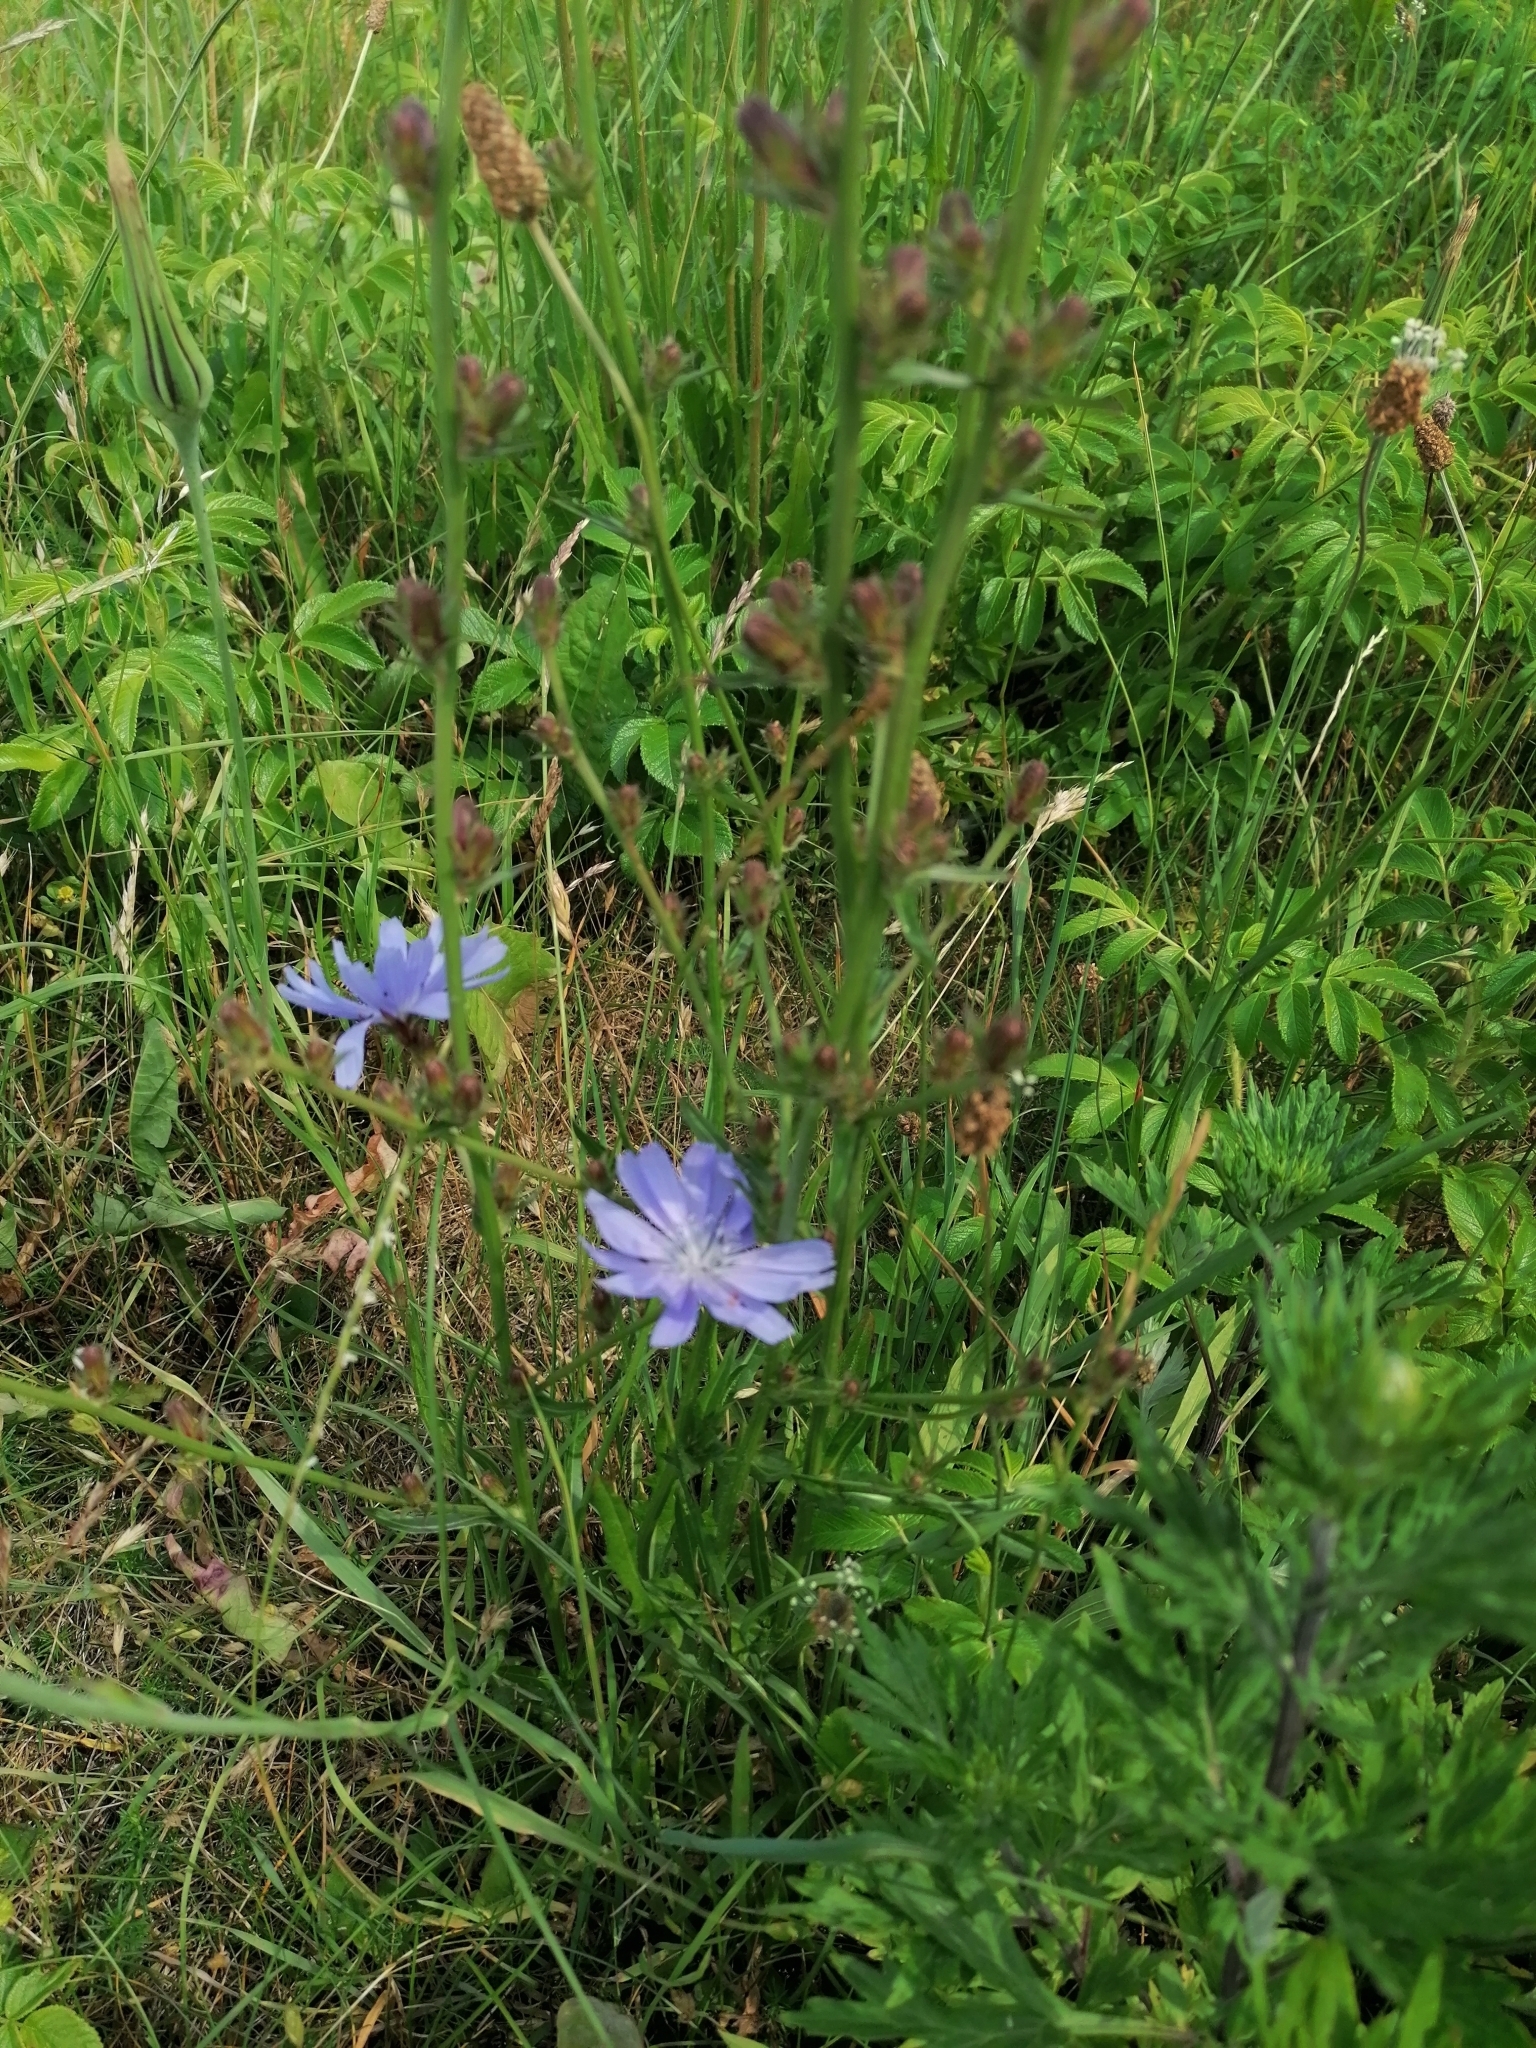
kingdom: Plantae
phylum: Tracheophyta
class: Magnoliopsida
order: Asterales
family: Asteraceae
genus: Cichorium
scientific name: Cichorium intybus
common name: Chicory
